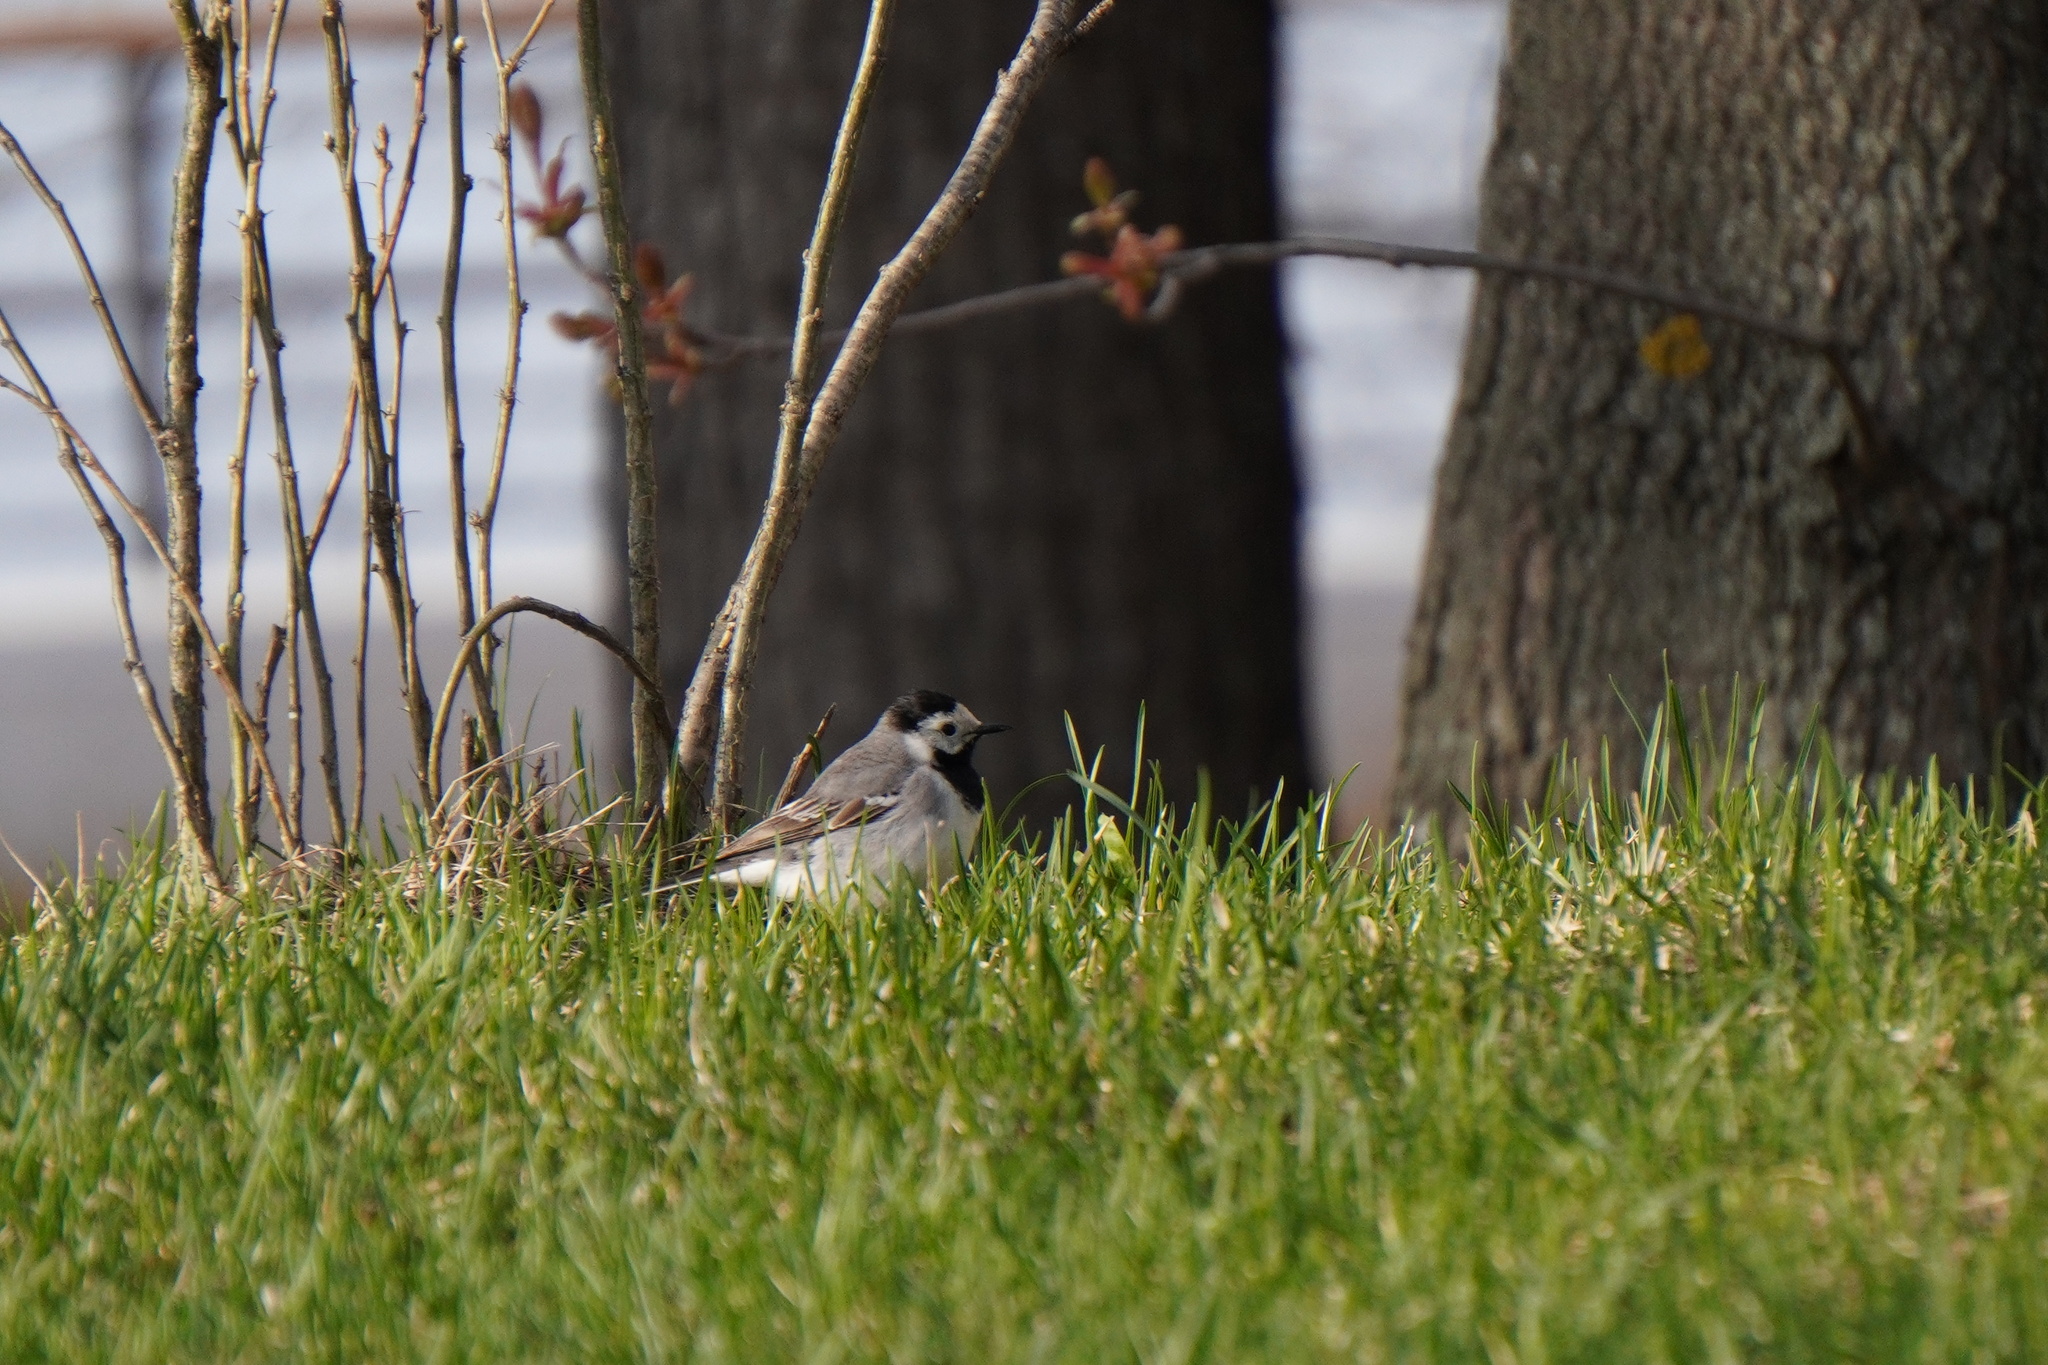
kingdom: Animalia
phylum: Chordata
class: Aves
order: Passeriformes
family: Motacillidae
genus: Motacilla
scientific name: Motacilla alba
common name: White wagtail
